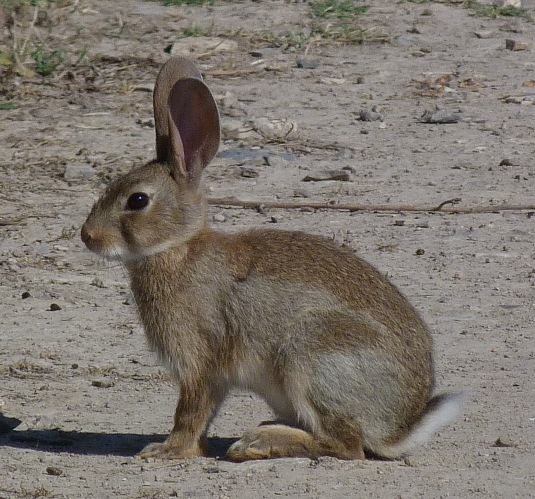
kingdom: Animalia
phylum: Chordata
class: Mammalia
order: Lagomorpha
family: Leporidae
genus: Oryctolagus
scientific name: Oryctolagus cuniculus
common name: European rabbit
